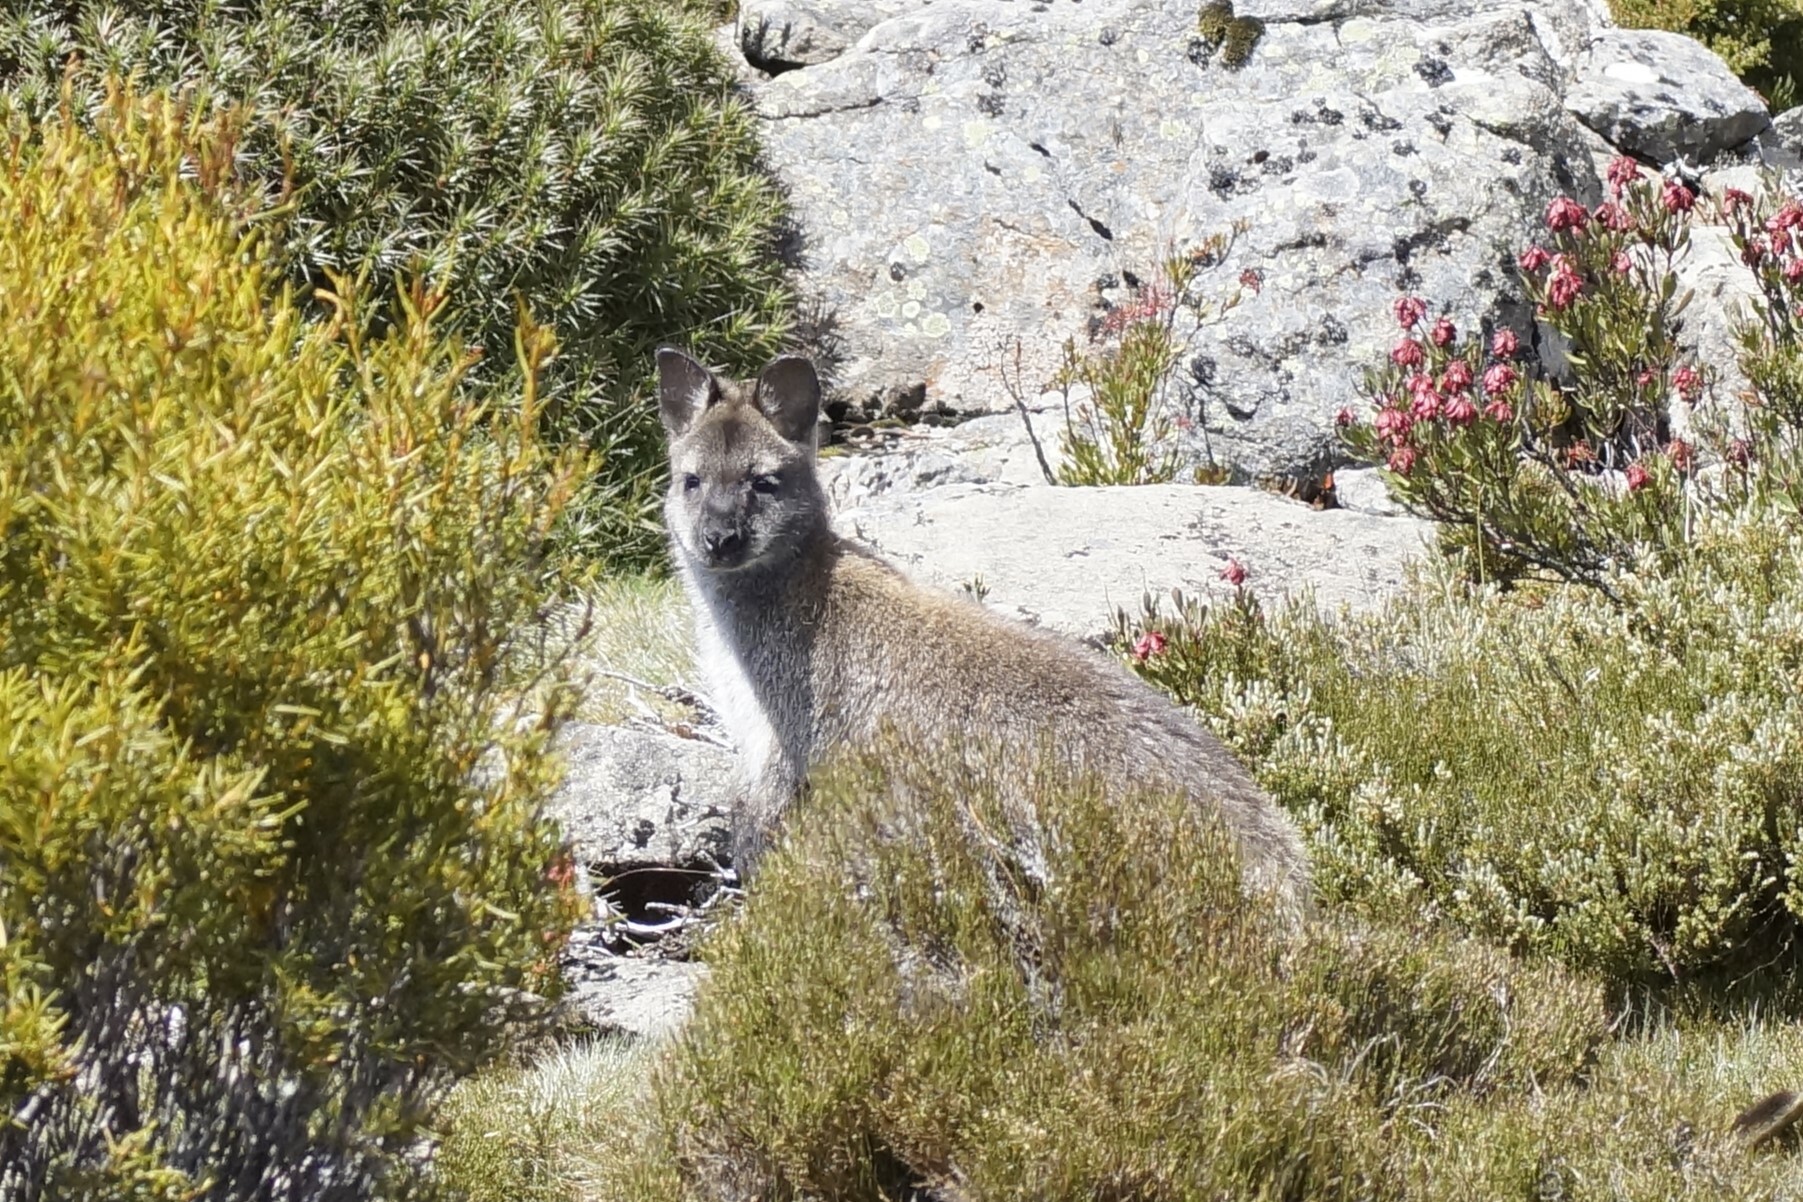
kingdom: Animalia
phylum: Chordata
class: Mammalia
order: Diprotodontia
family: Macropodidae
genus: Notamacropus
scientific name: Notamacropus rufogriseus
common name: Red-necked wallaby
